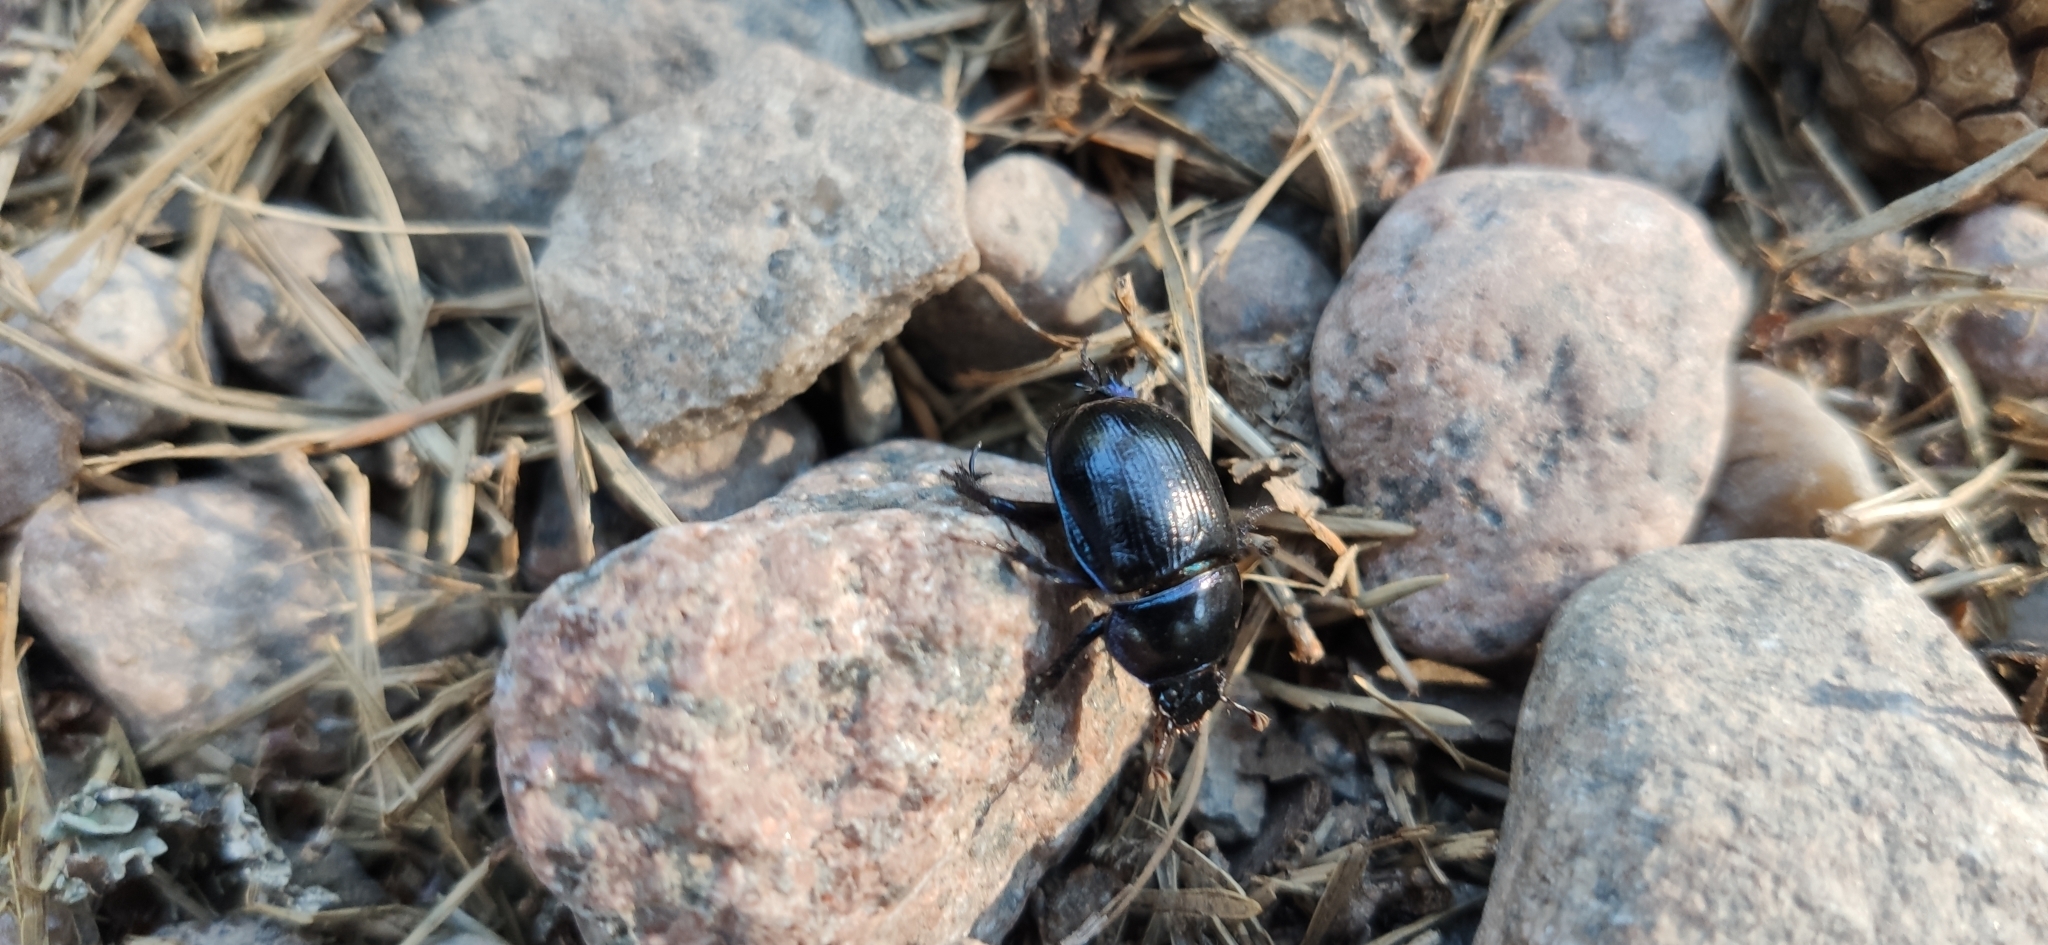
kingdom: Animalia
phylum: Arthropoda
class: Insecta
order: Coleoptera
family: Geotrupidae
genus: Anoplotrupes
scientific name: Anoplotrupes stercorosus
